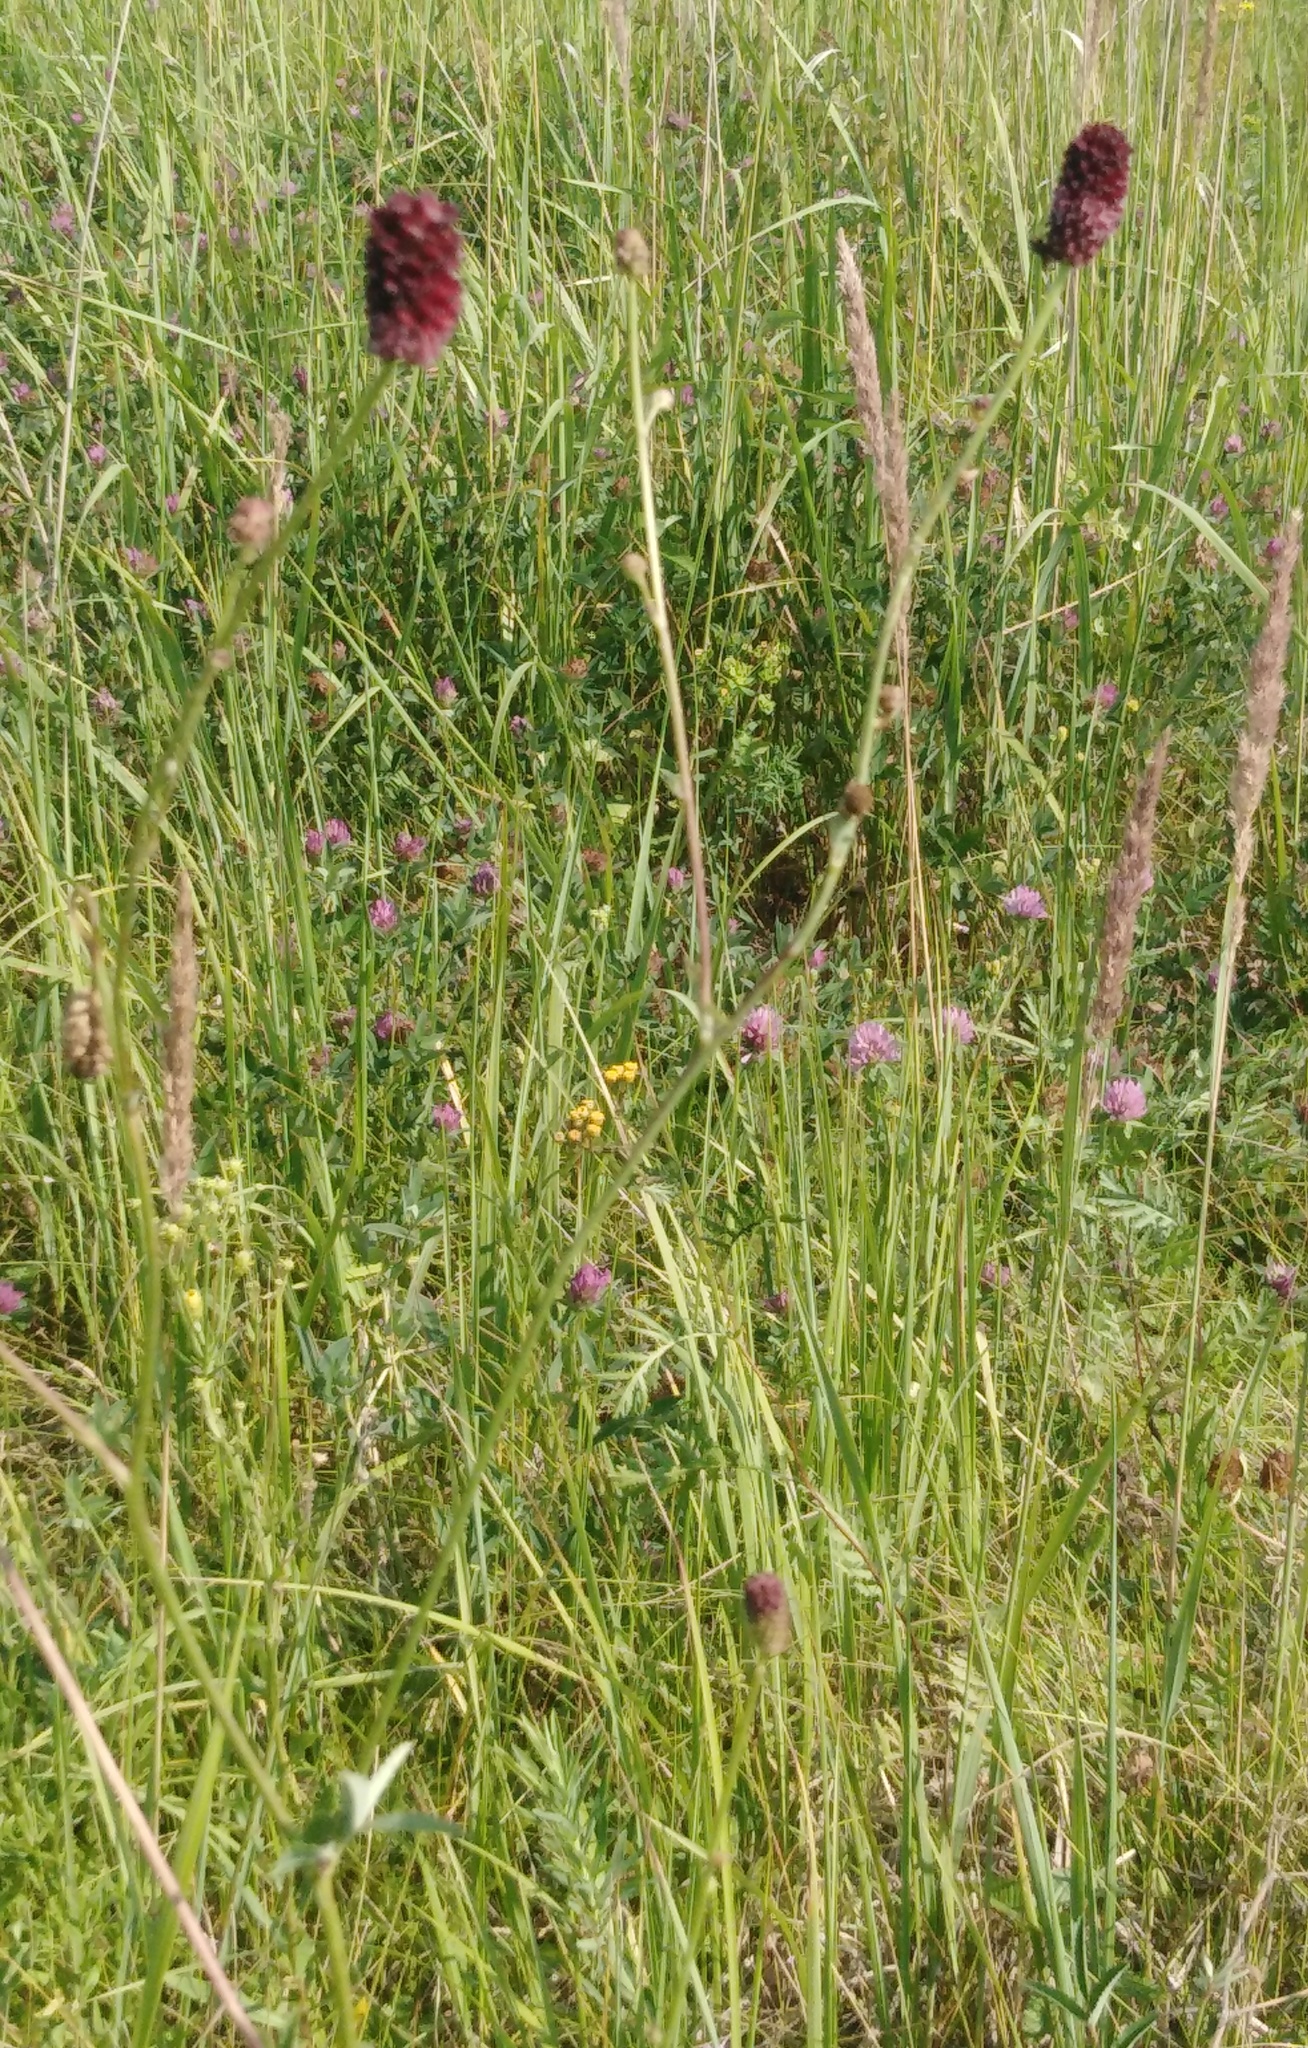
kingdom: Plantae
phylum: Tracheophyta
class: Magnoliopsida
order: Rosales
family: Rosaceae
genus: Sanguisorba
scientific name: Sanguisorba officinalis
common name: Great burnet
